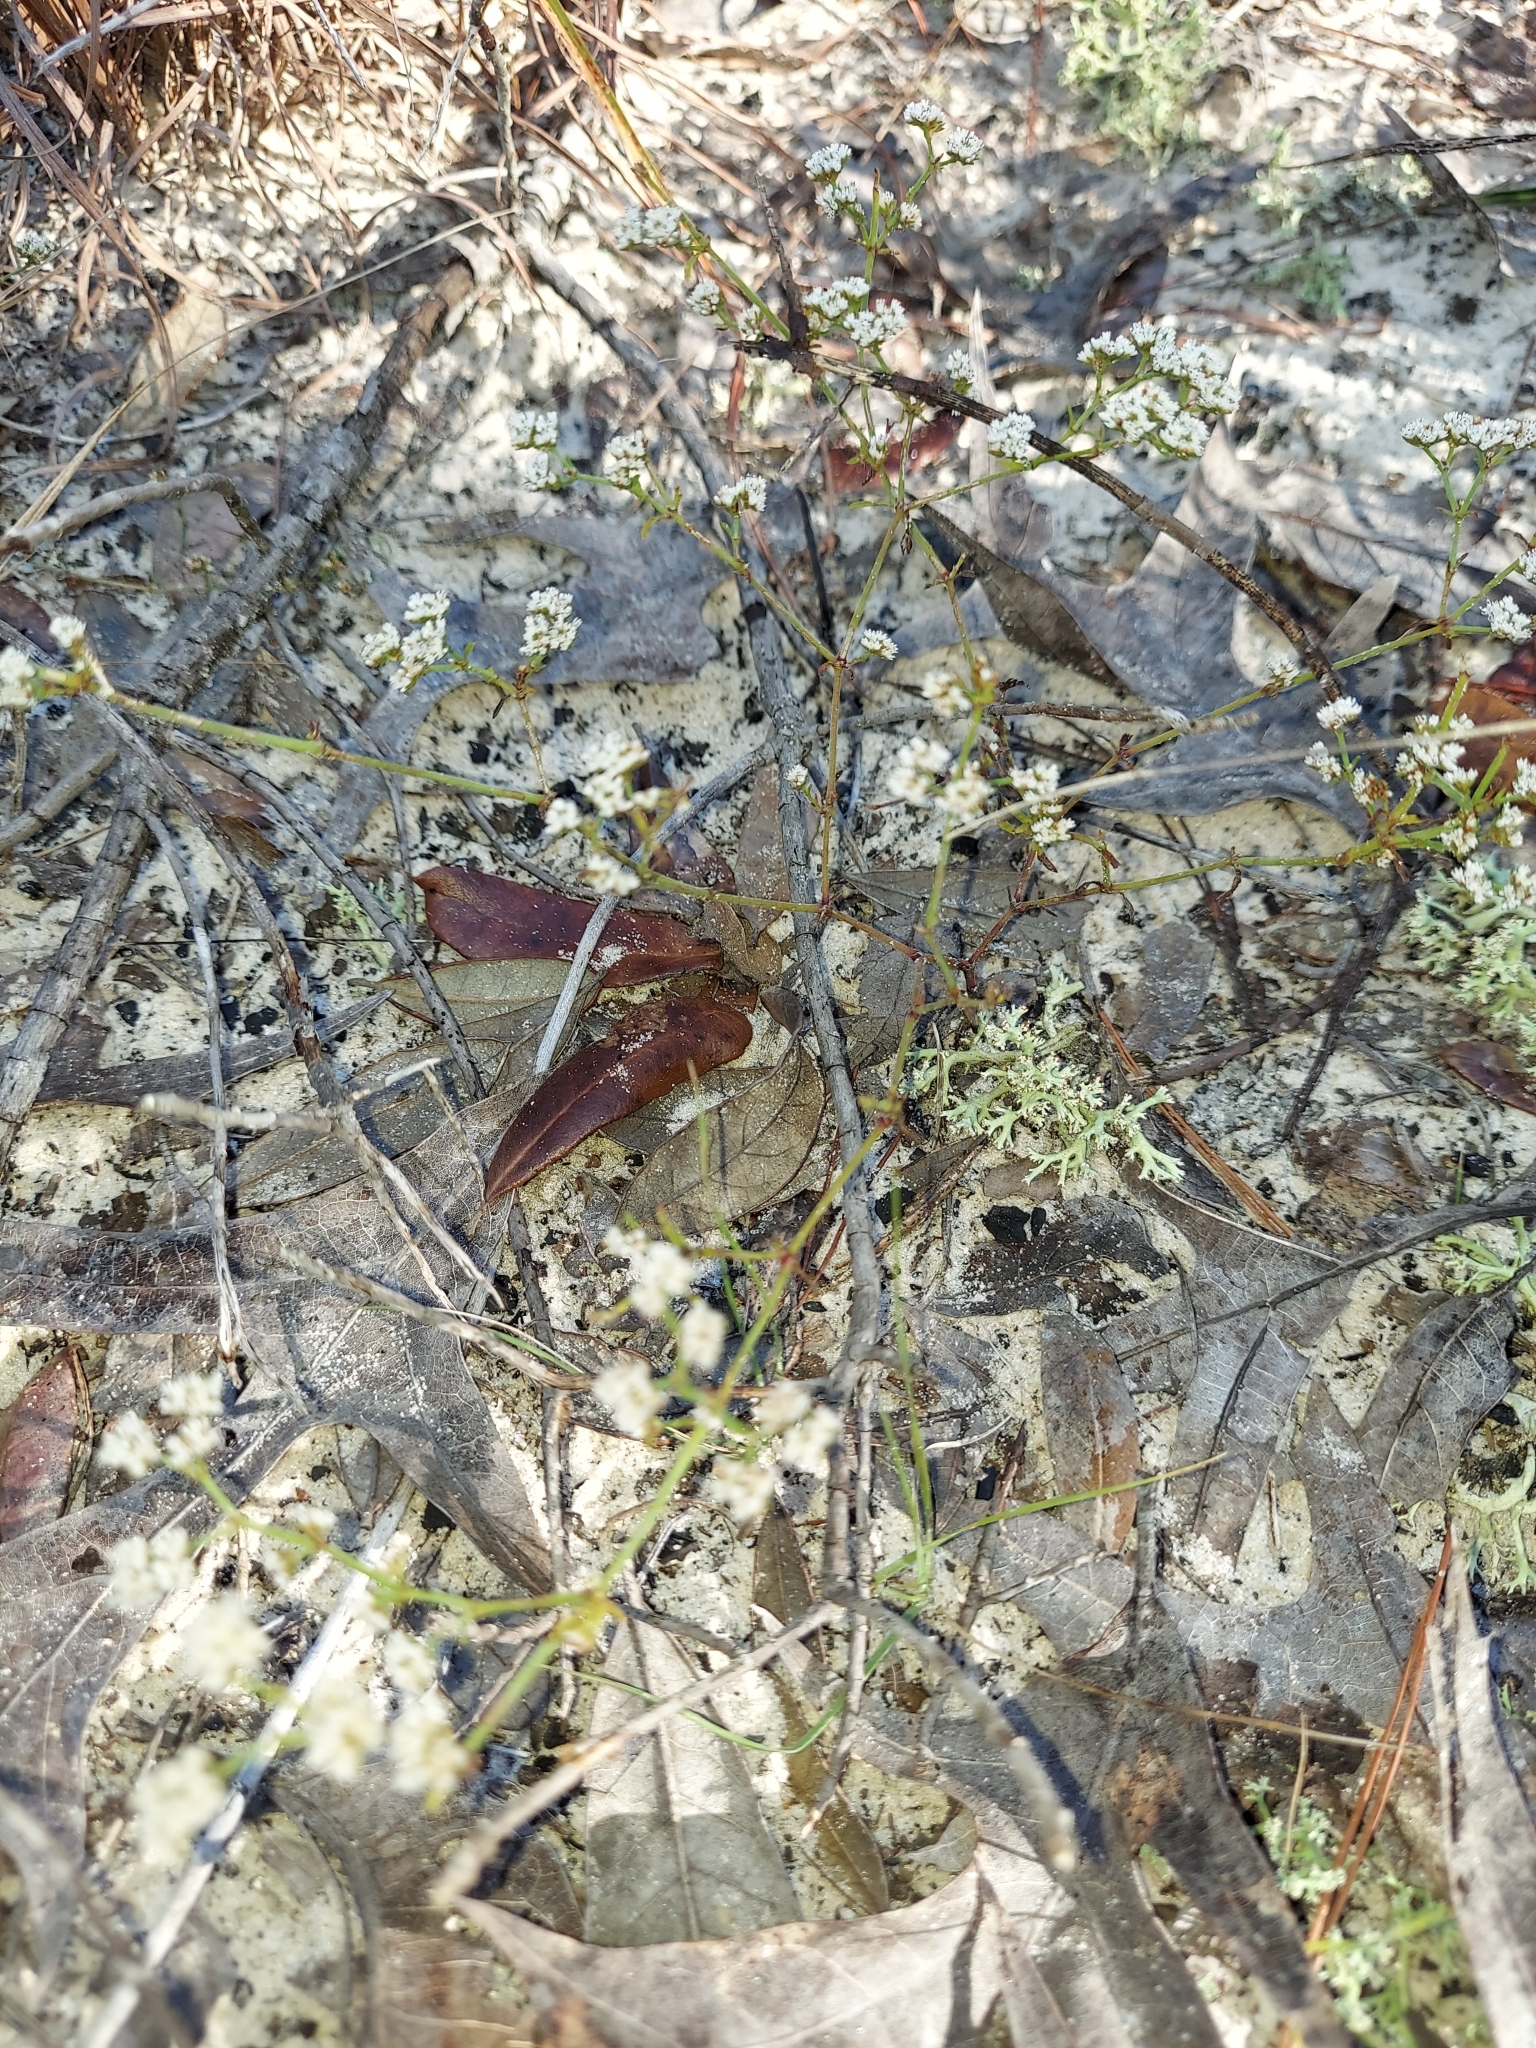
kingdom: Plantae
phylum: Tracheophyta
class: Magnoliopsida
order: Caryophyllales
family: Caryophyllaceae
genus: Paronychia
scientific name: Paronychia patula
